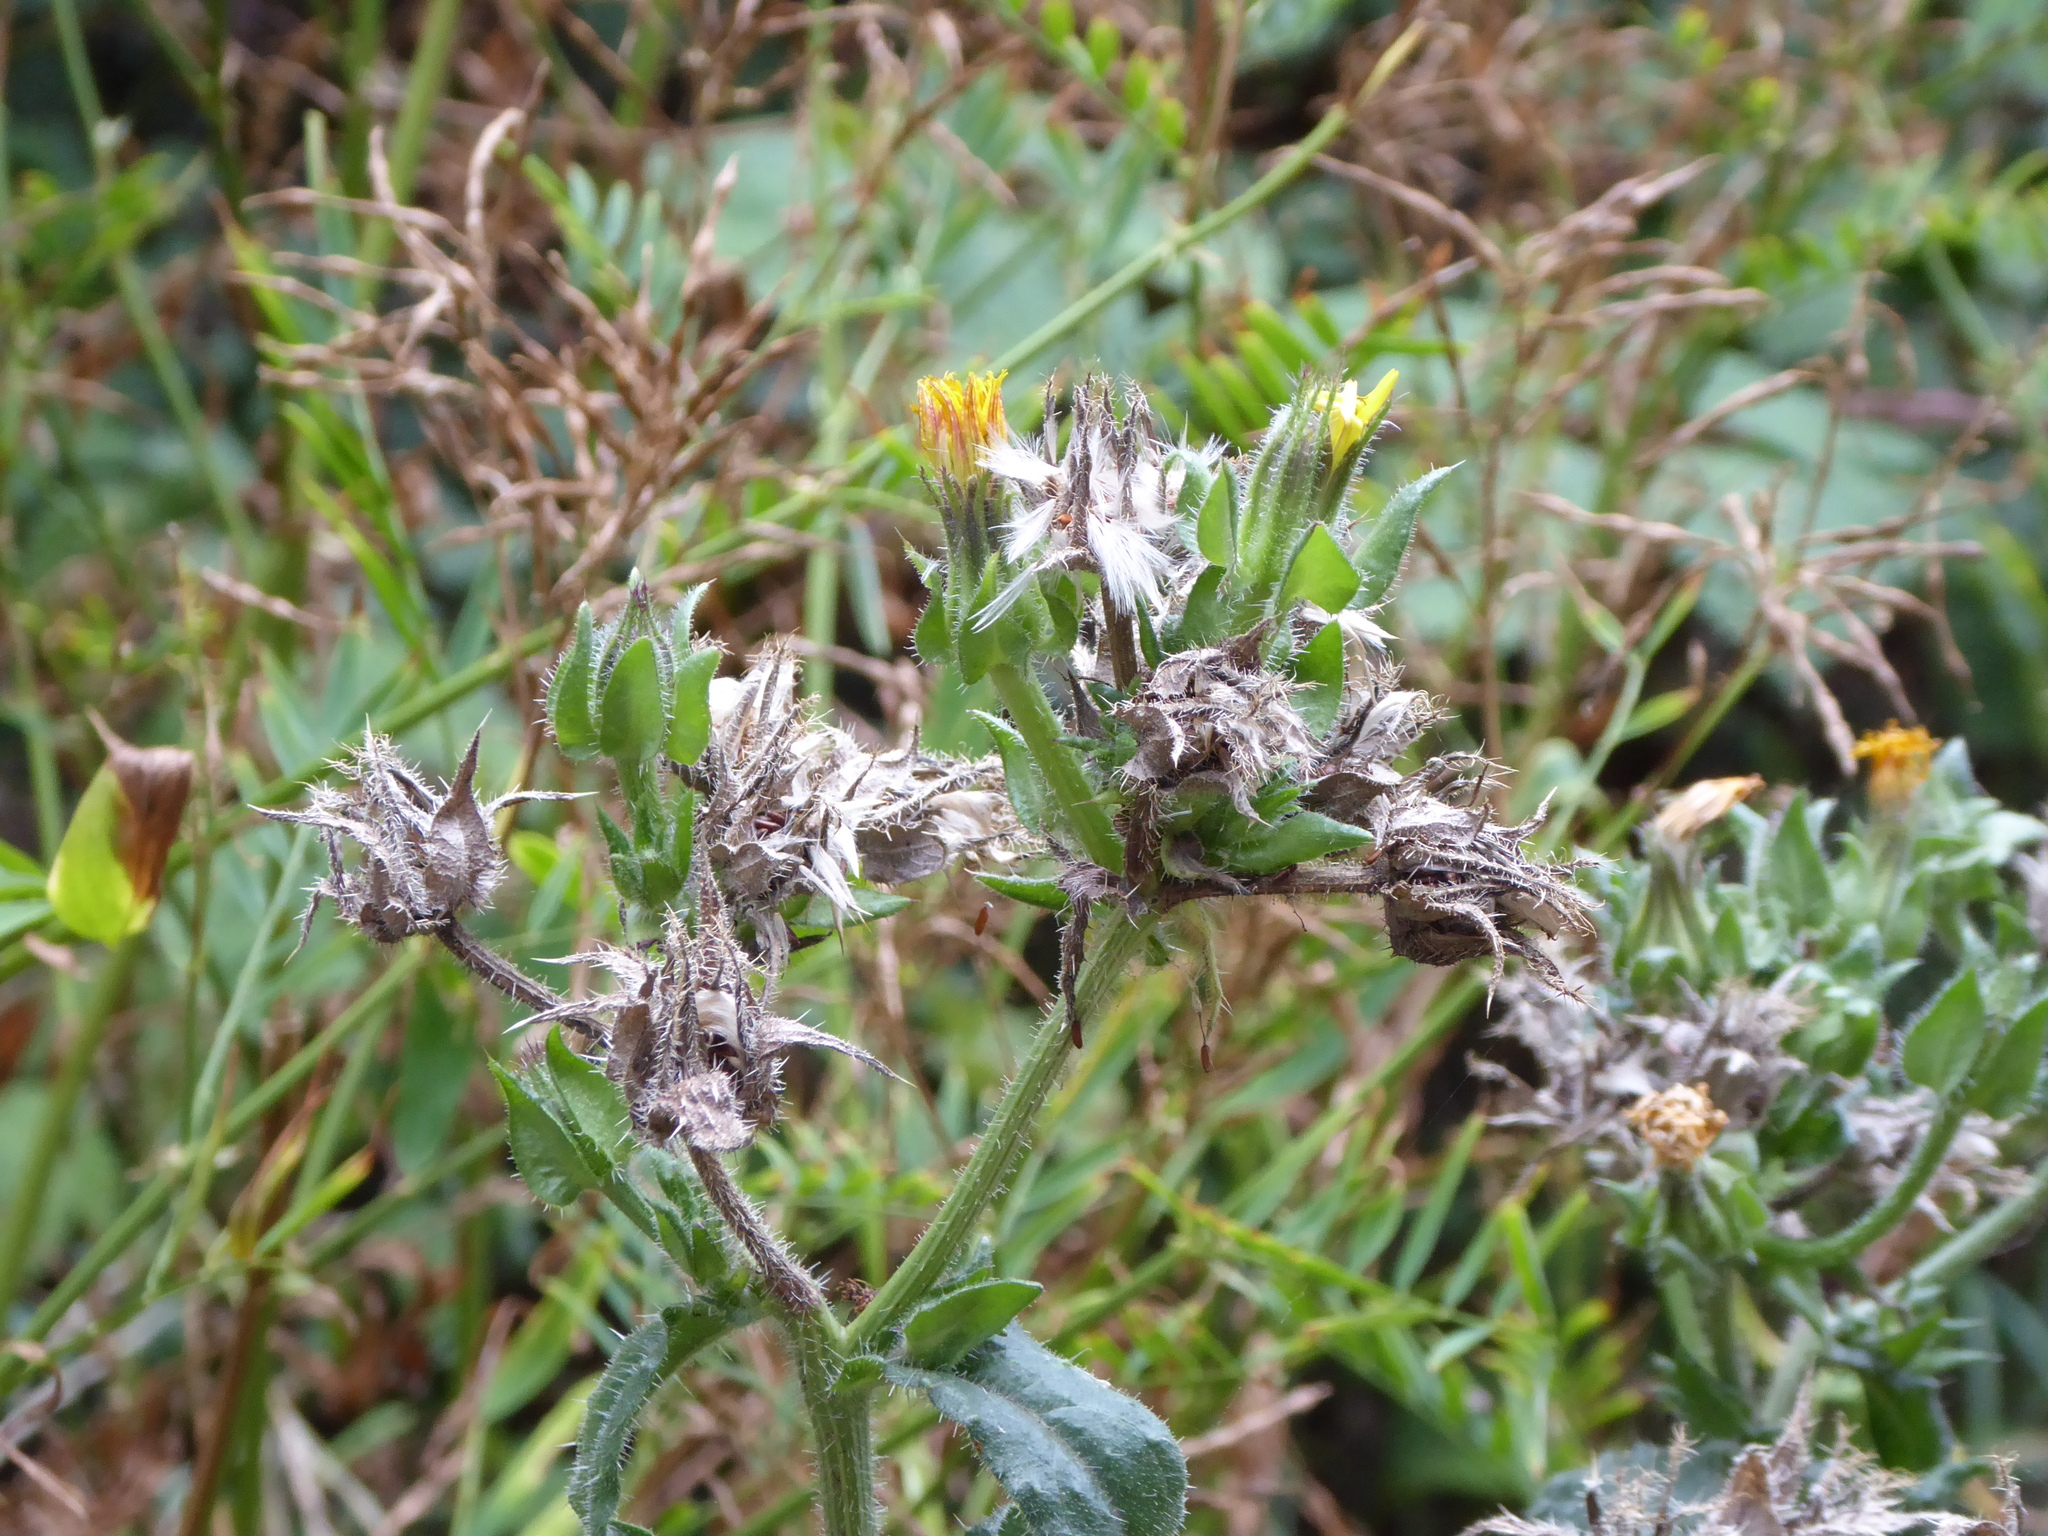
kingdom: Plantae
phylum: Tracheophyta
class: Magnoliopsida
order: Asterales
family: Asteraceae
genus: Helminthotheca
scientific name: Helminthotheca echioides
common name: Ox-tongue
